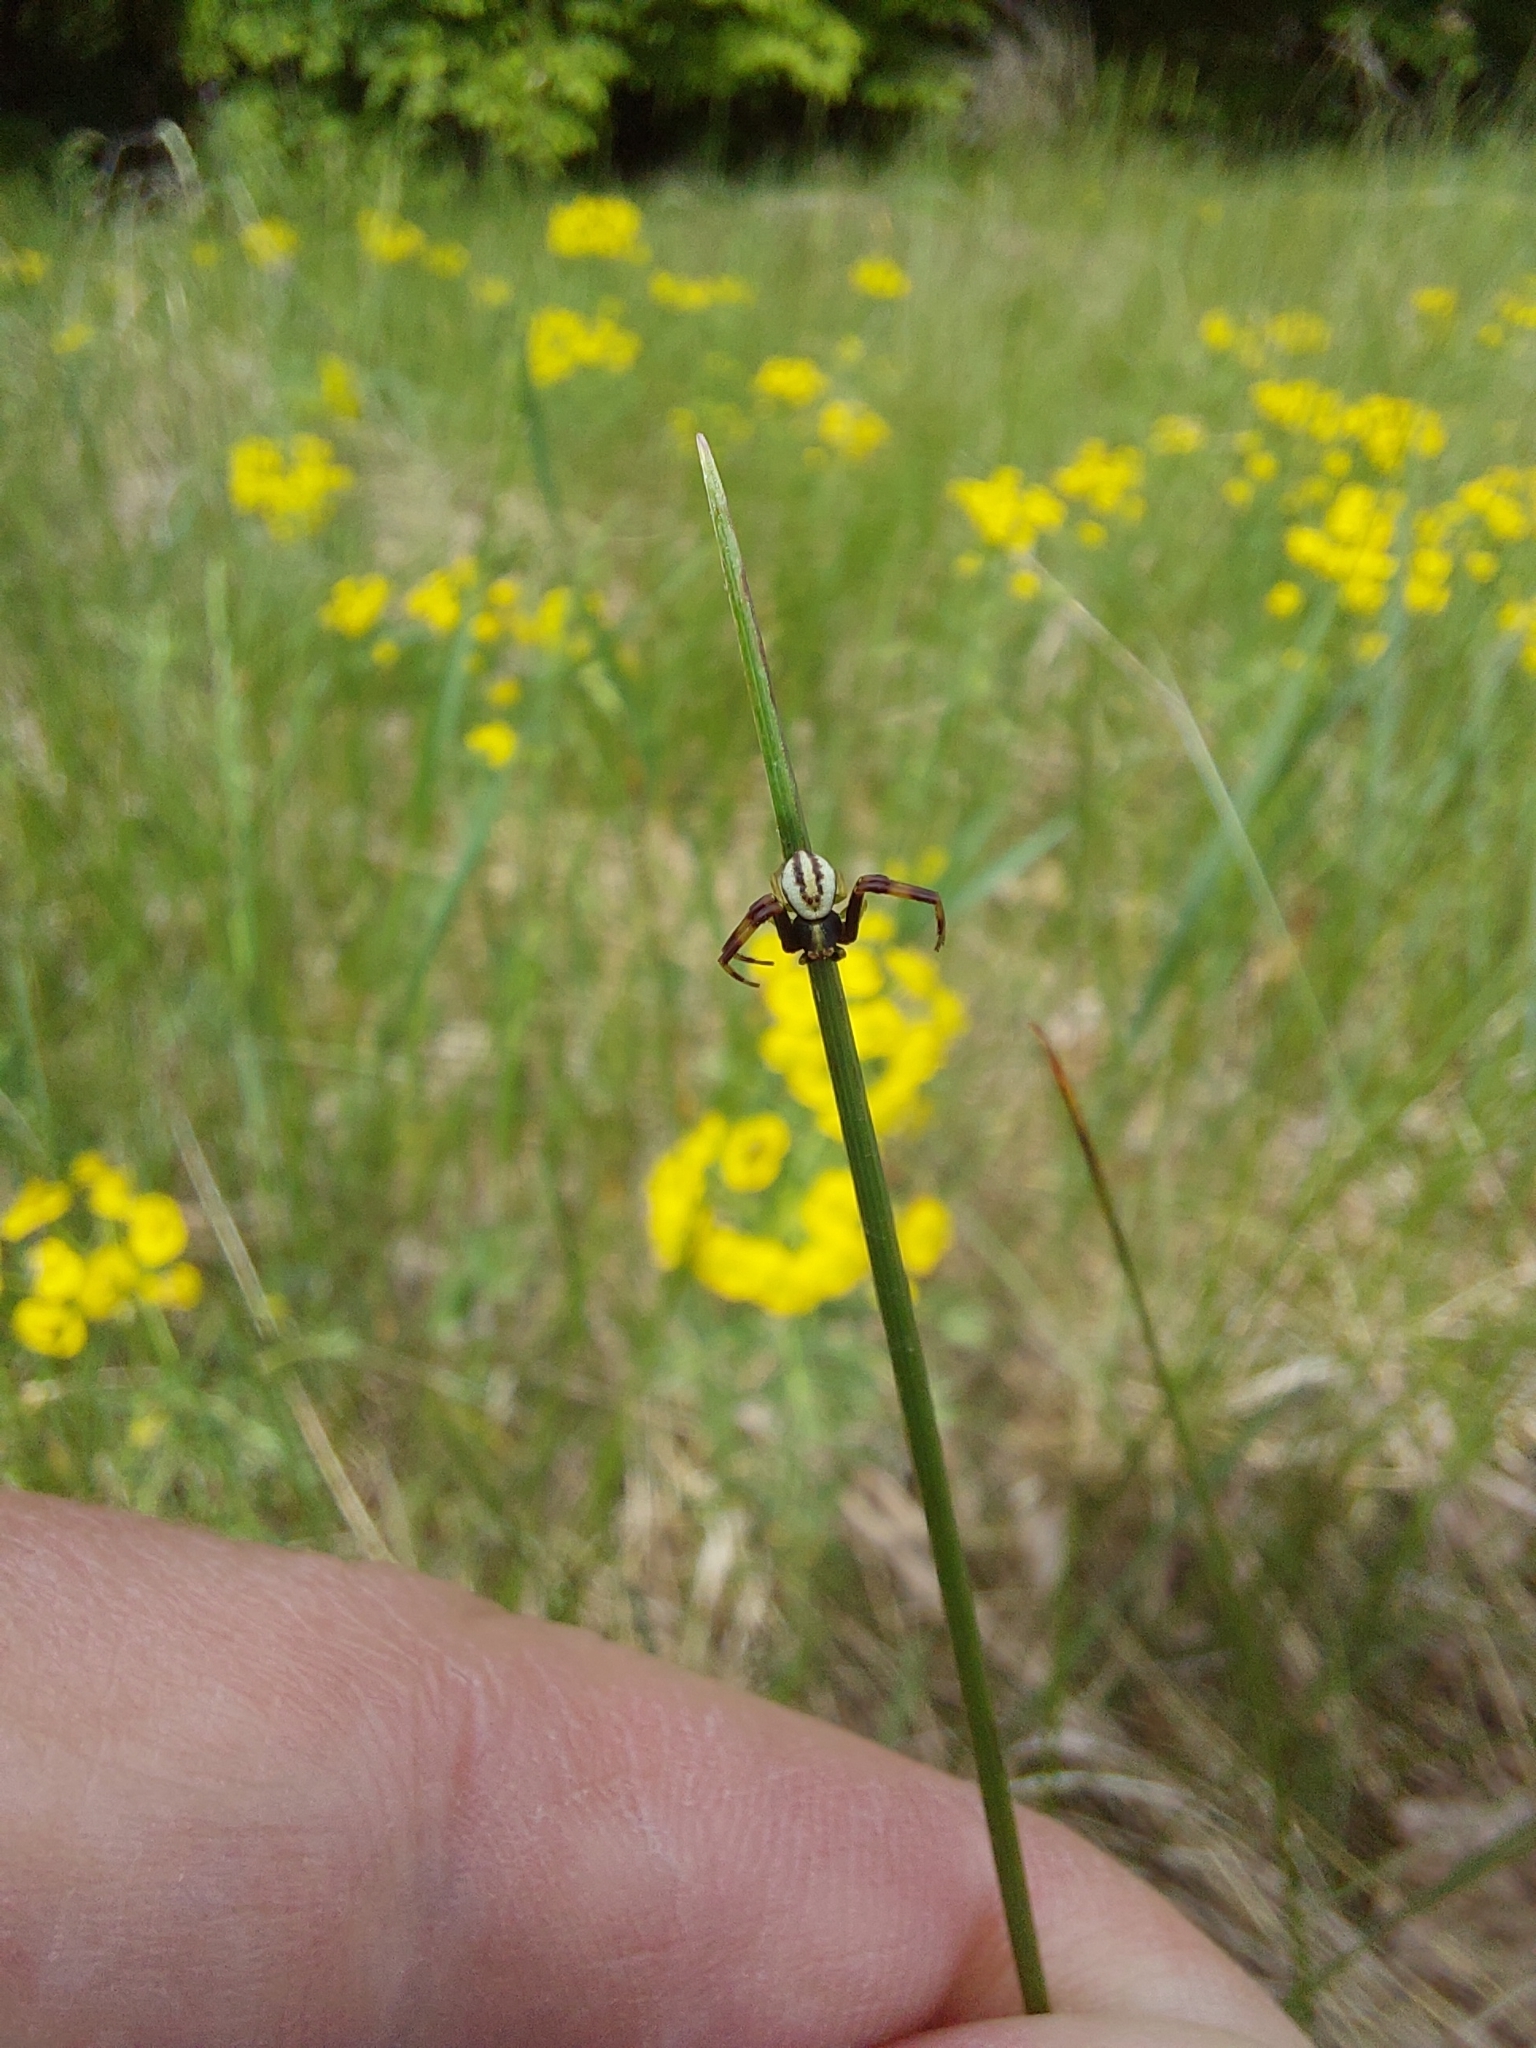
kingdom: Animalia
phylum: Arthropoda
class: Arachnida
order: Araneae
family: Thomisidae
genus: Misumena
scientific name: Misumena vatia
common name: Goldenrod crab spider
